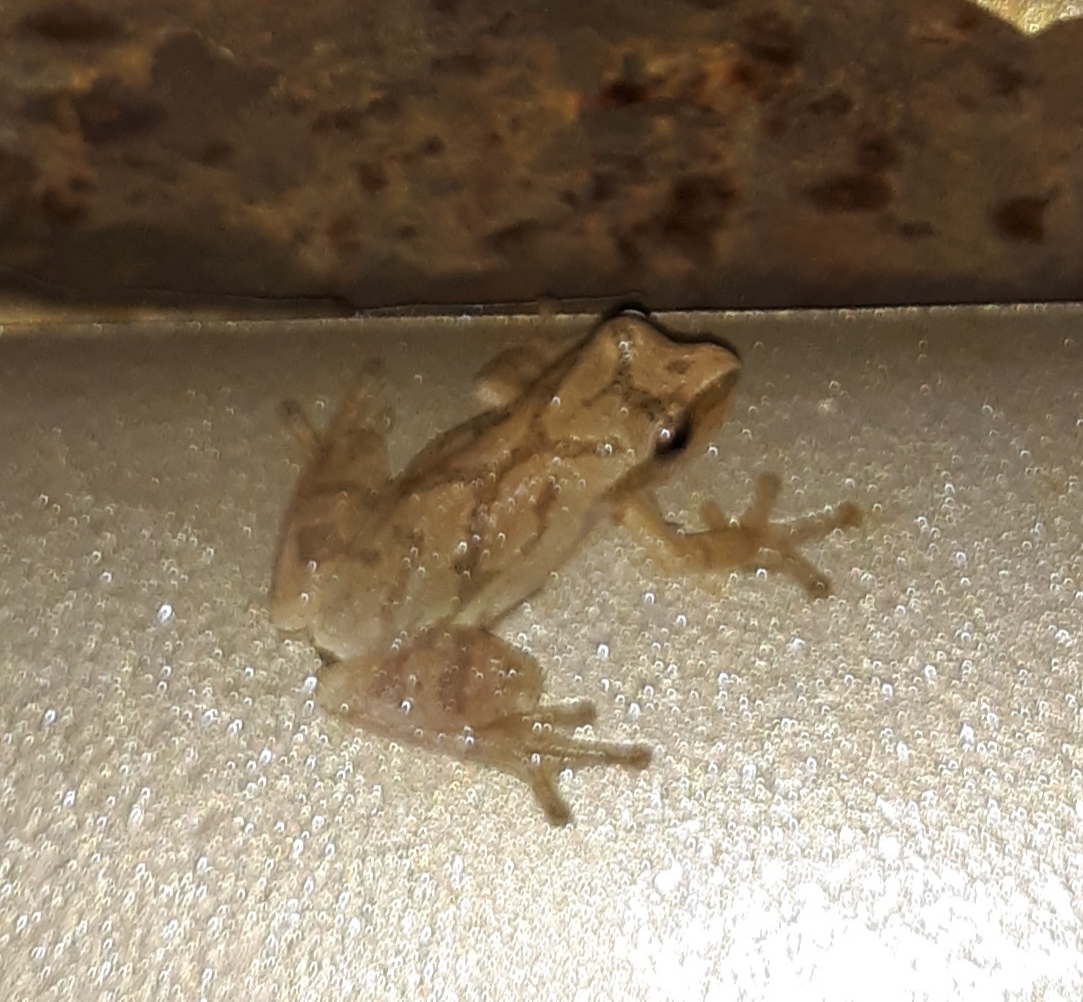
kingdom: Animalia
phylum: Chordata
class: Amphibia
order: Anura
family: Hylidae
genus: Pseudacris
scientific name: Pseudacris crucifer
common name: Spring peeper
